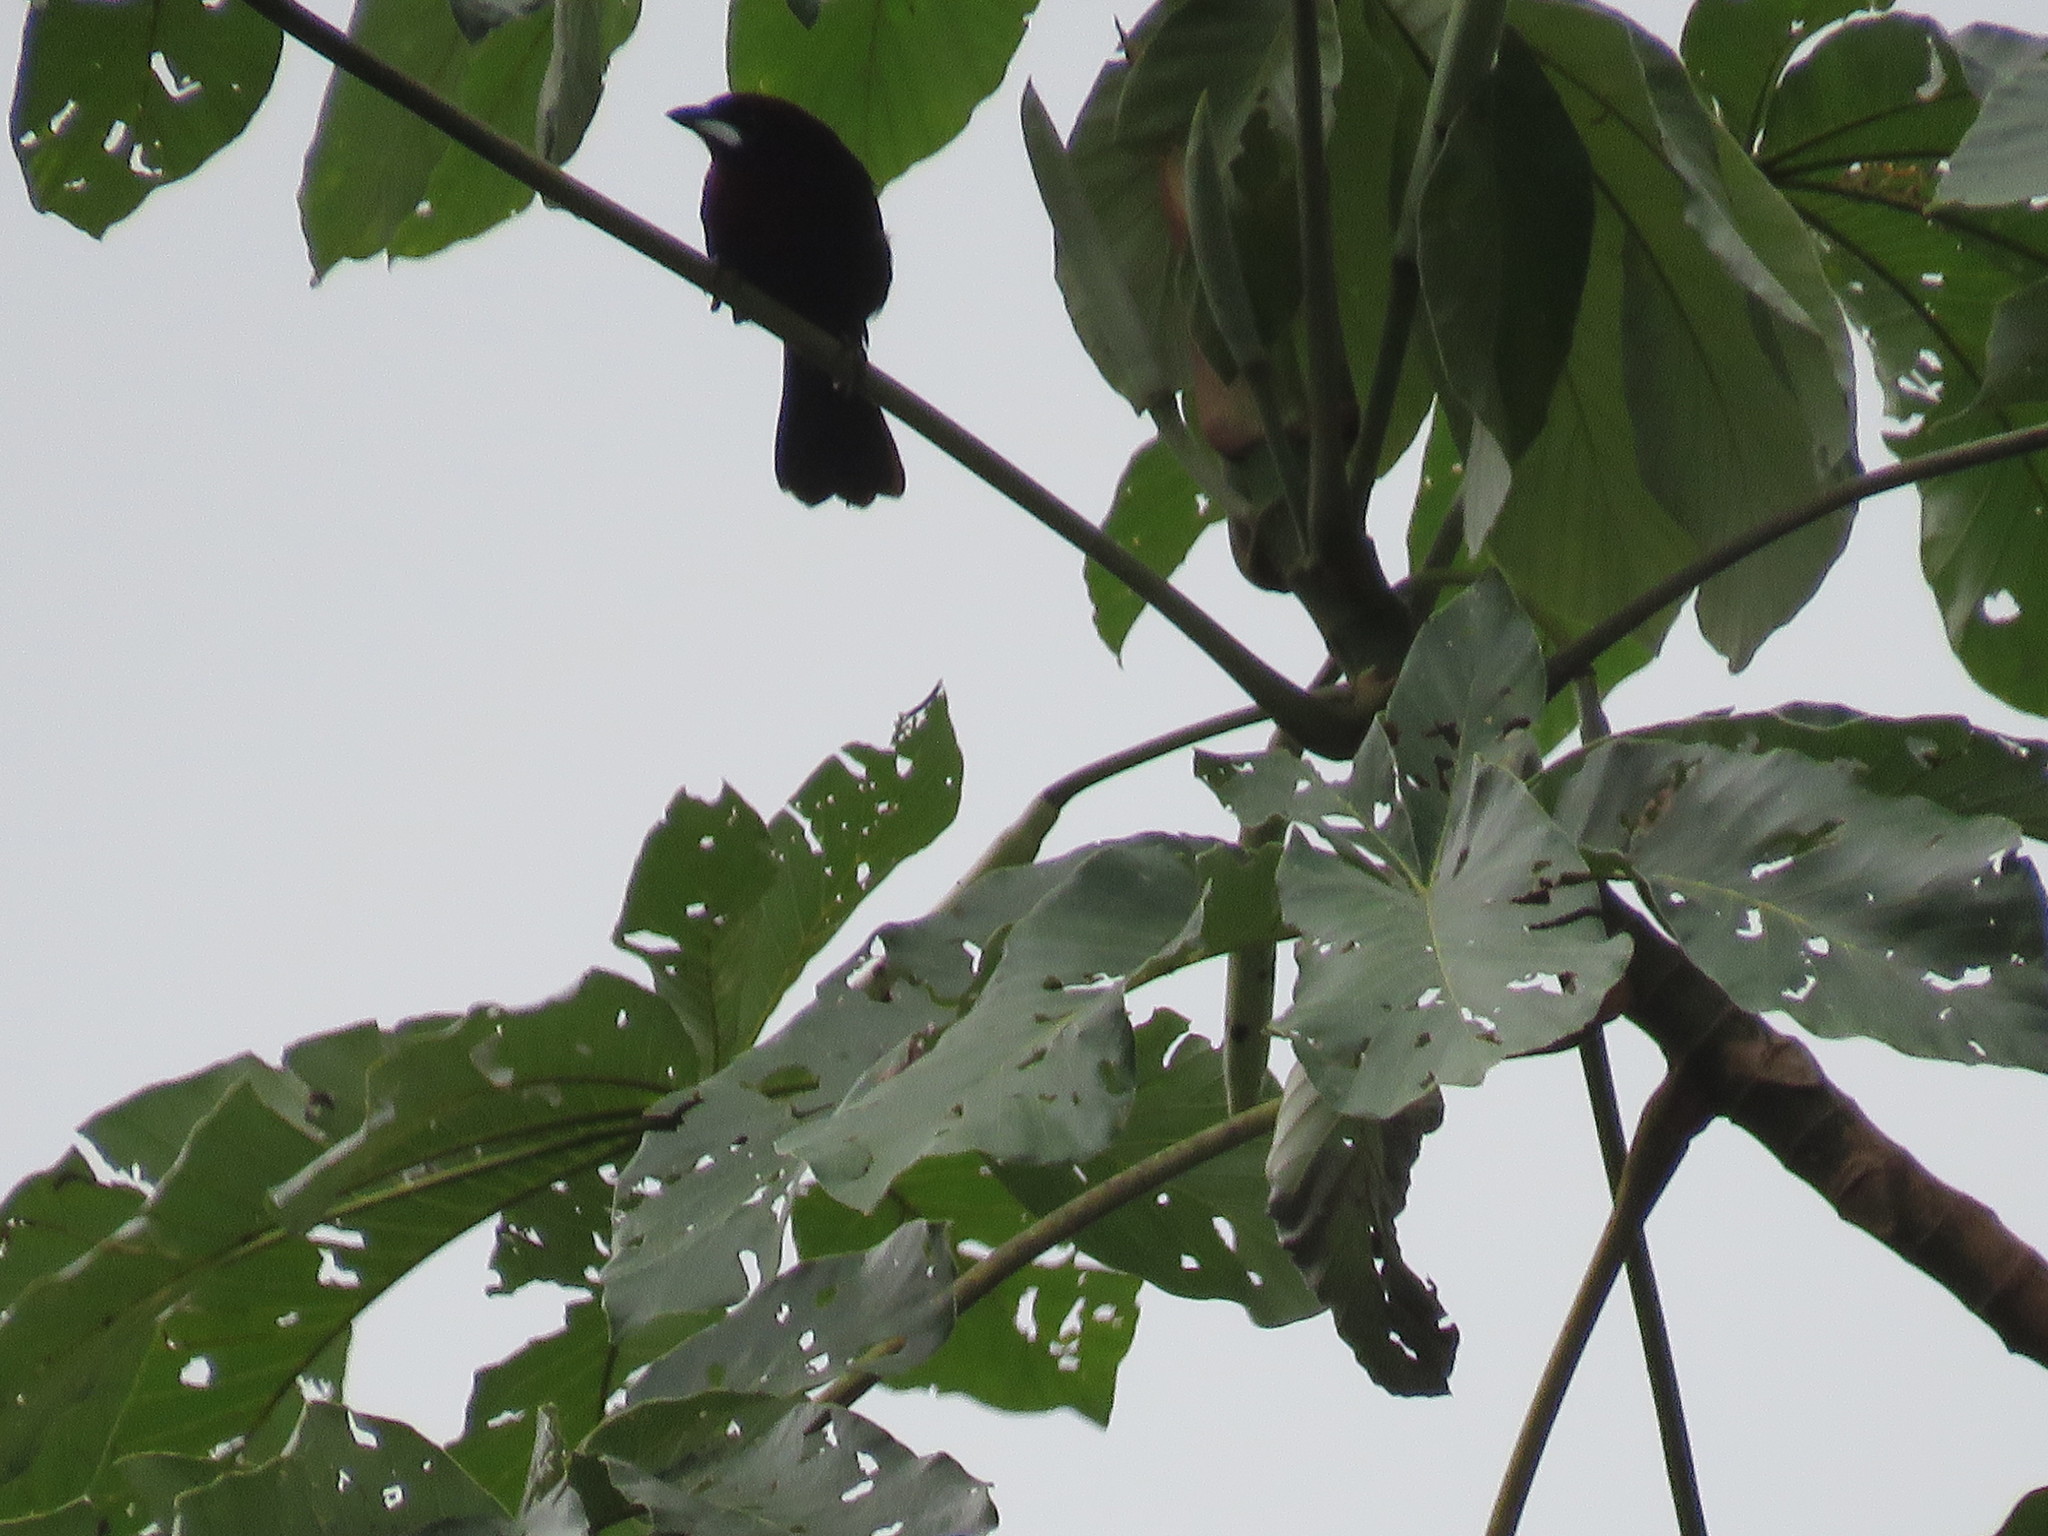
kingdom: Animalia
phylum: Chordata
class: Aves
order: Passeriformes
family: Thraupidae
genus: Ramphocelus
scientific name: Ramphocelus carbo
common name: Silver-beaked tanager
